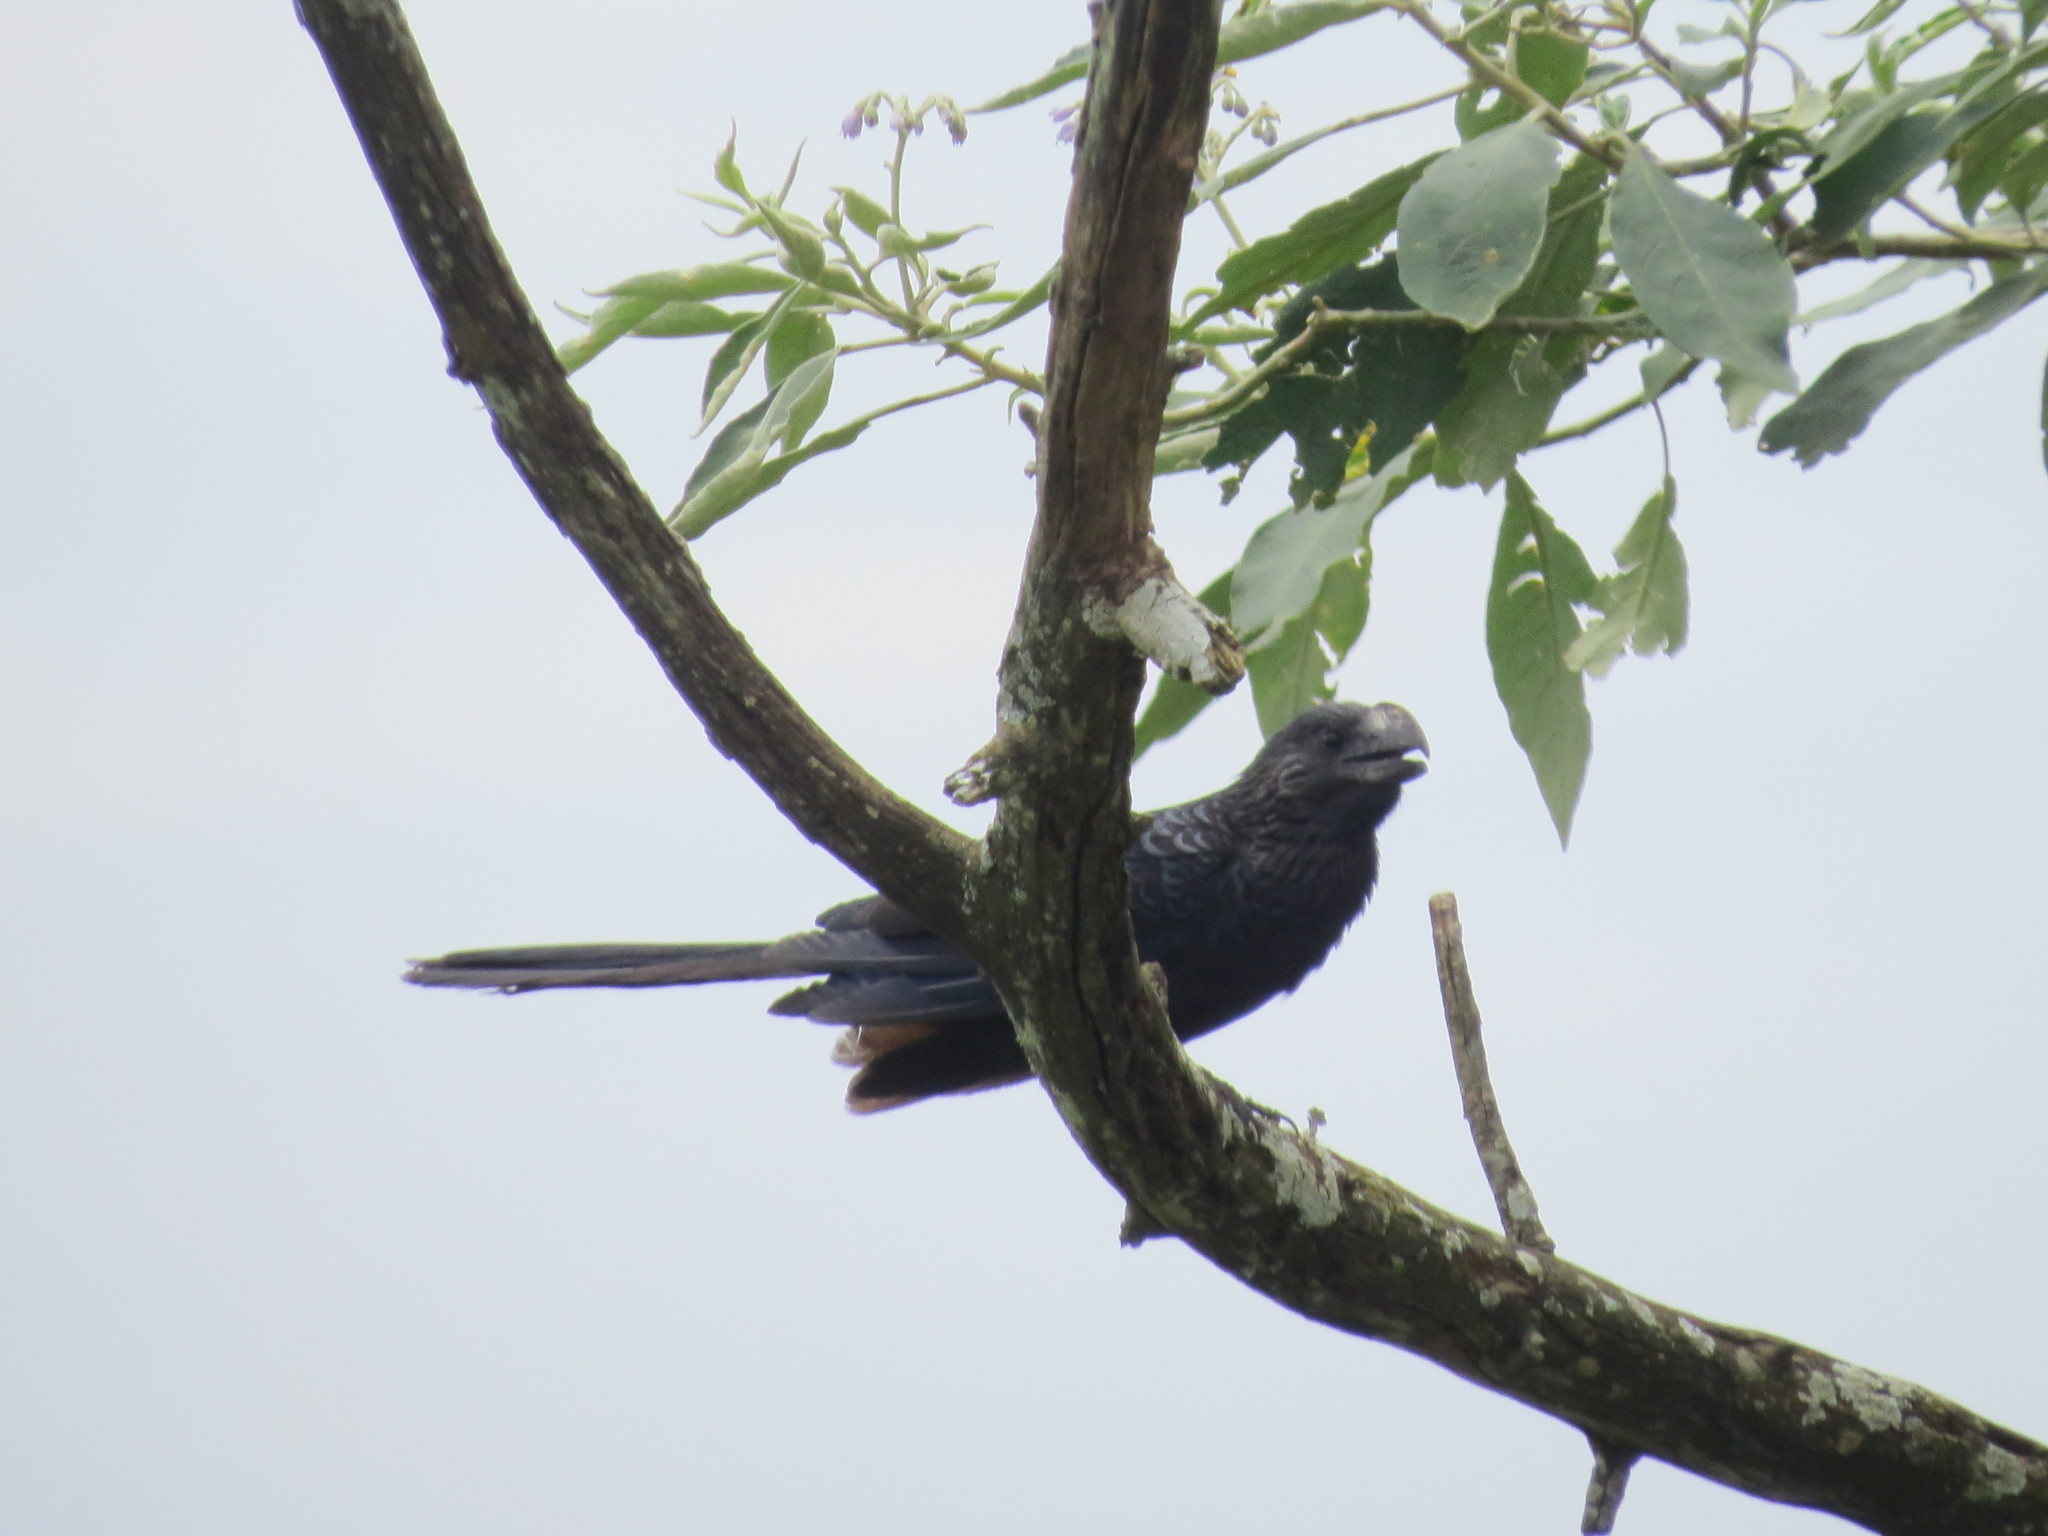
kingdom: Animalia
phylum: Chordata
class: Aves
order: Cuculiformes
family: Cuculidae
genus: Crotophaga
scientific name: Crotophaga ani
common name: Smooth-billed ani
